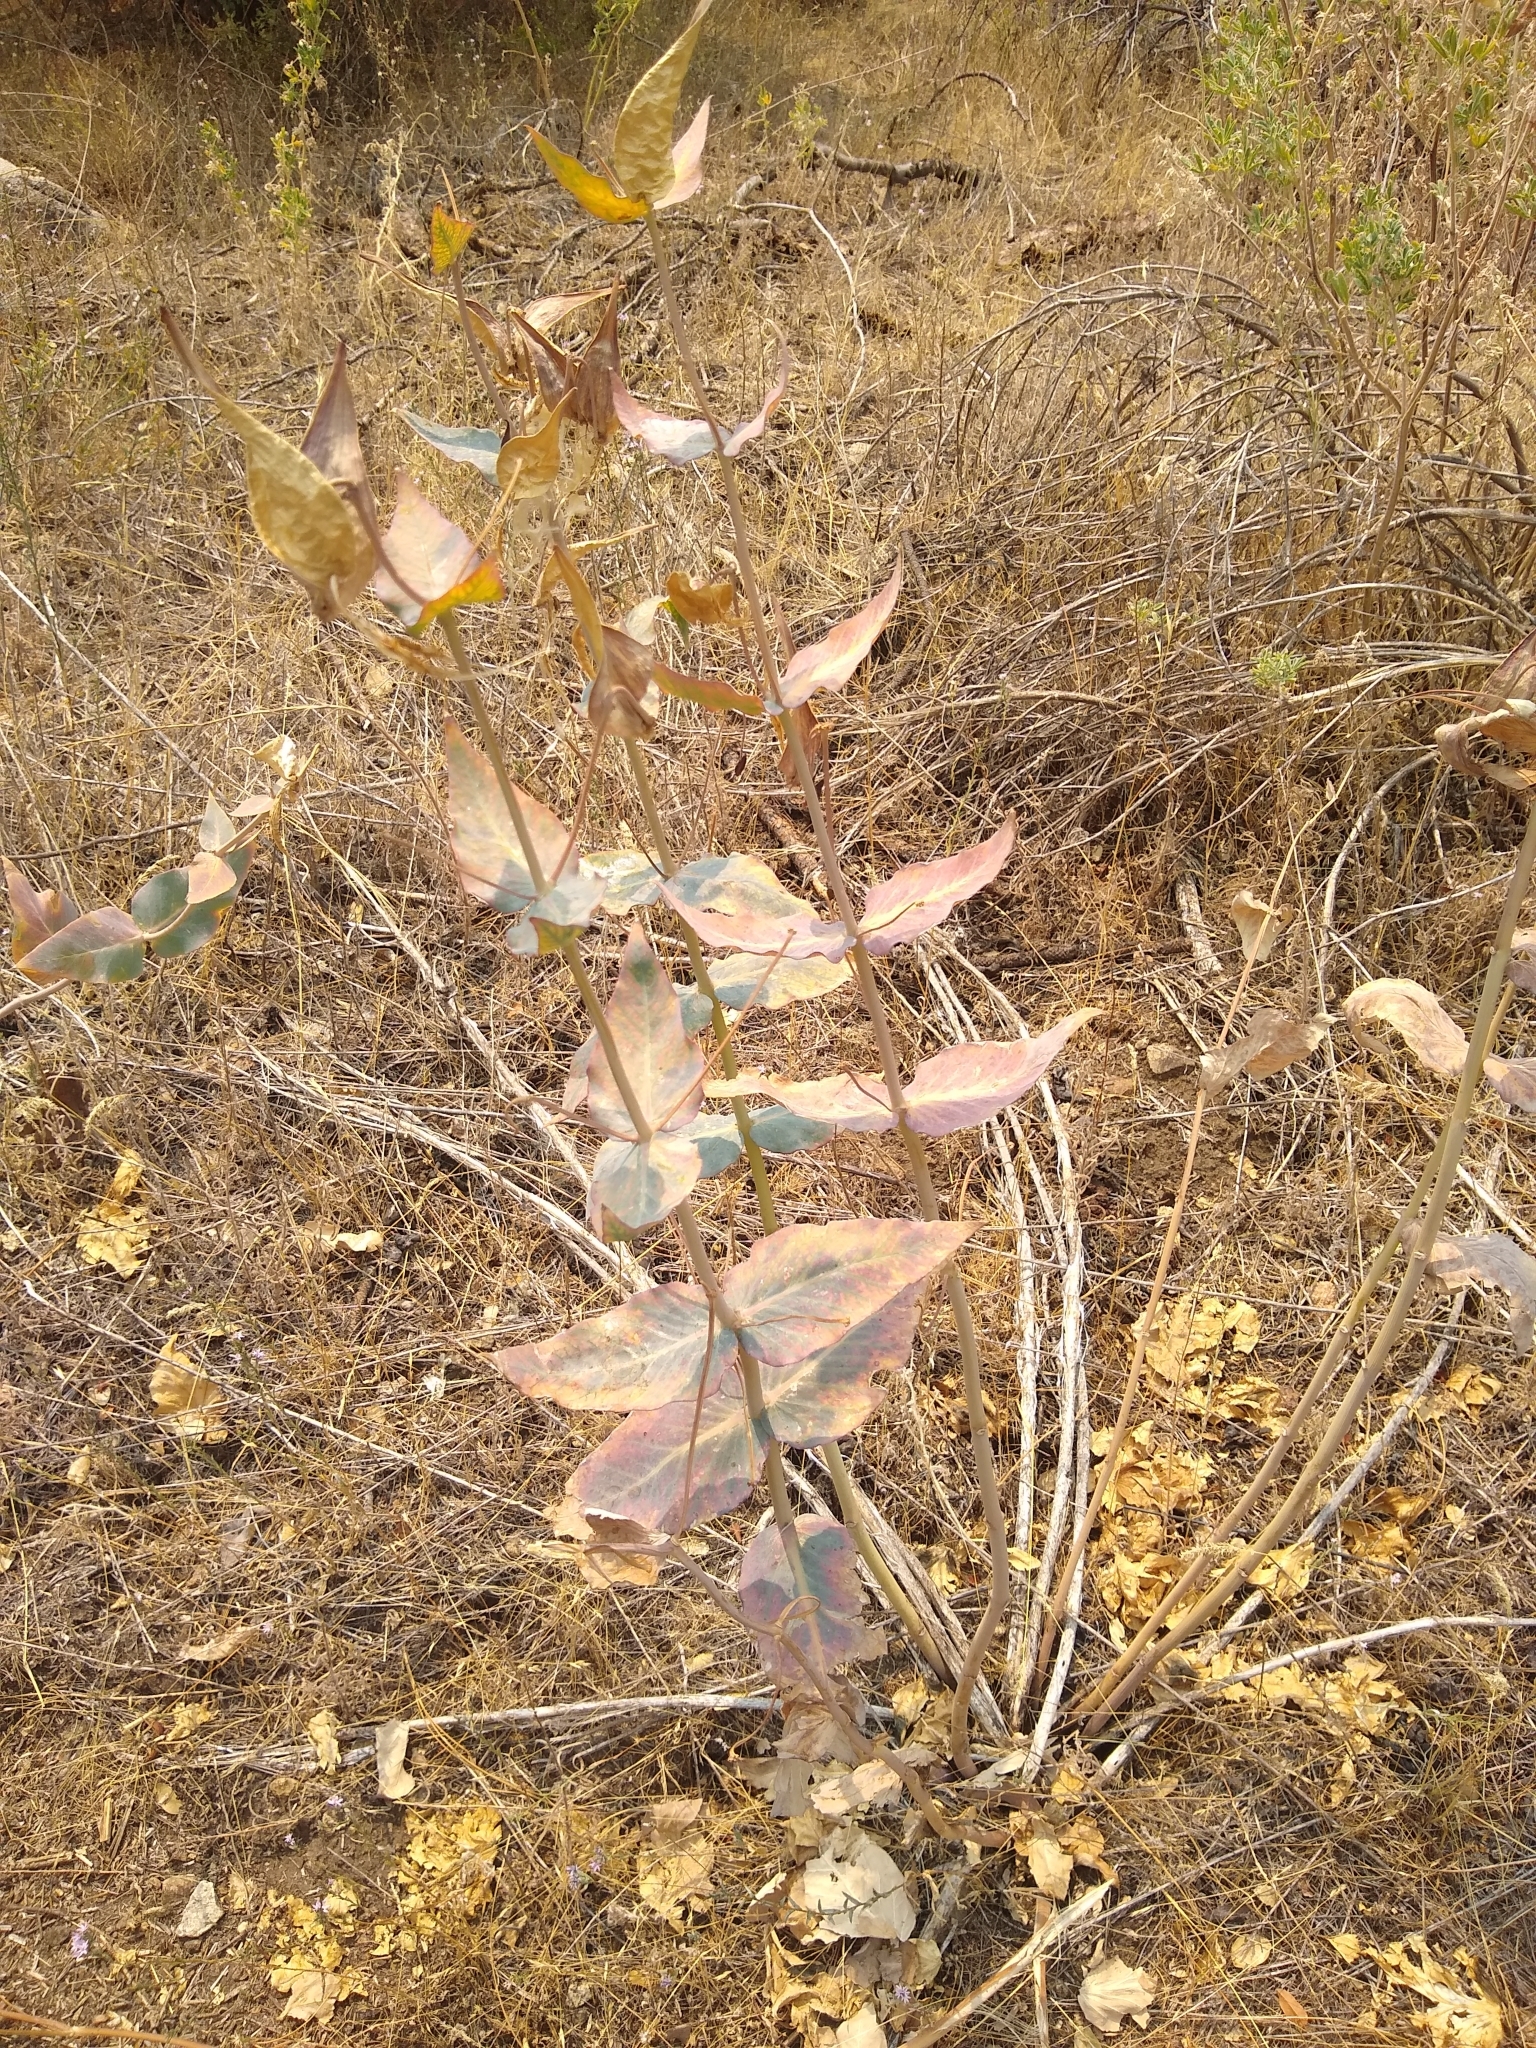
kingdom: Plantae
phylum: Tracheophyta
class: Magnoliopsida
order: Gentianales
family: Apocynaceae
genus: Asclepias
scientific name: Asclepias cordifolia
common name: Purple milkweed
